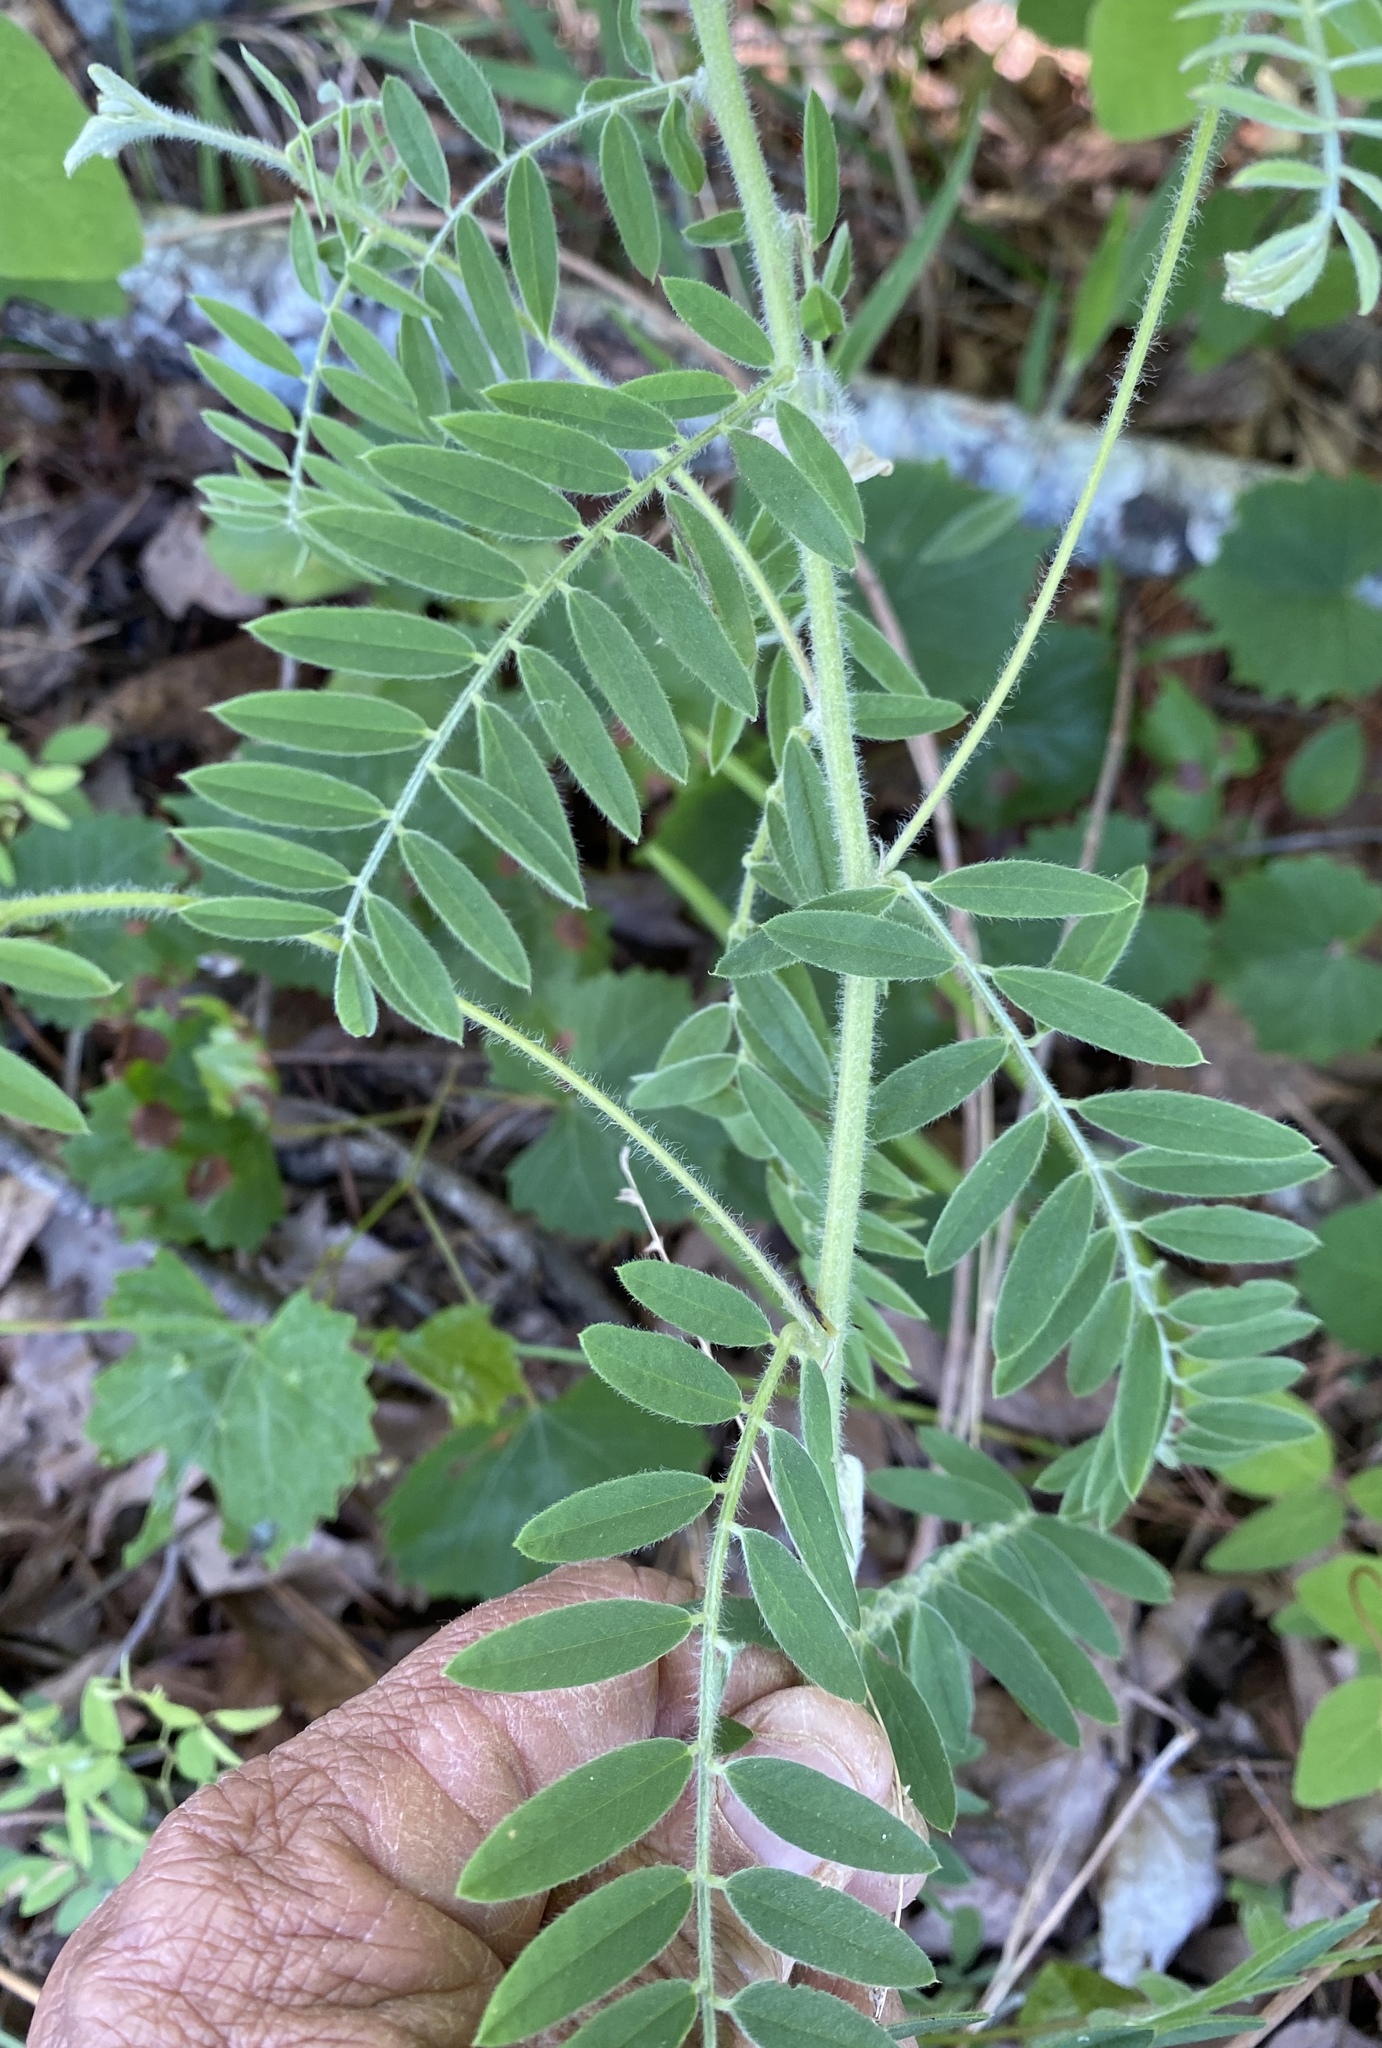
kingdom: Plantae
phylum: Tracheophyta
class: Magnoliopsida
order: Fabales
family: Fabaceae
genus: Tephrosia
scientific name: Tephrosia virginiana
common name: Rabbit-pea
